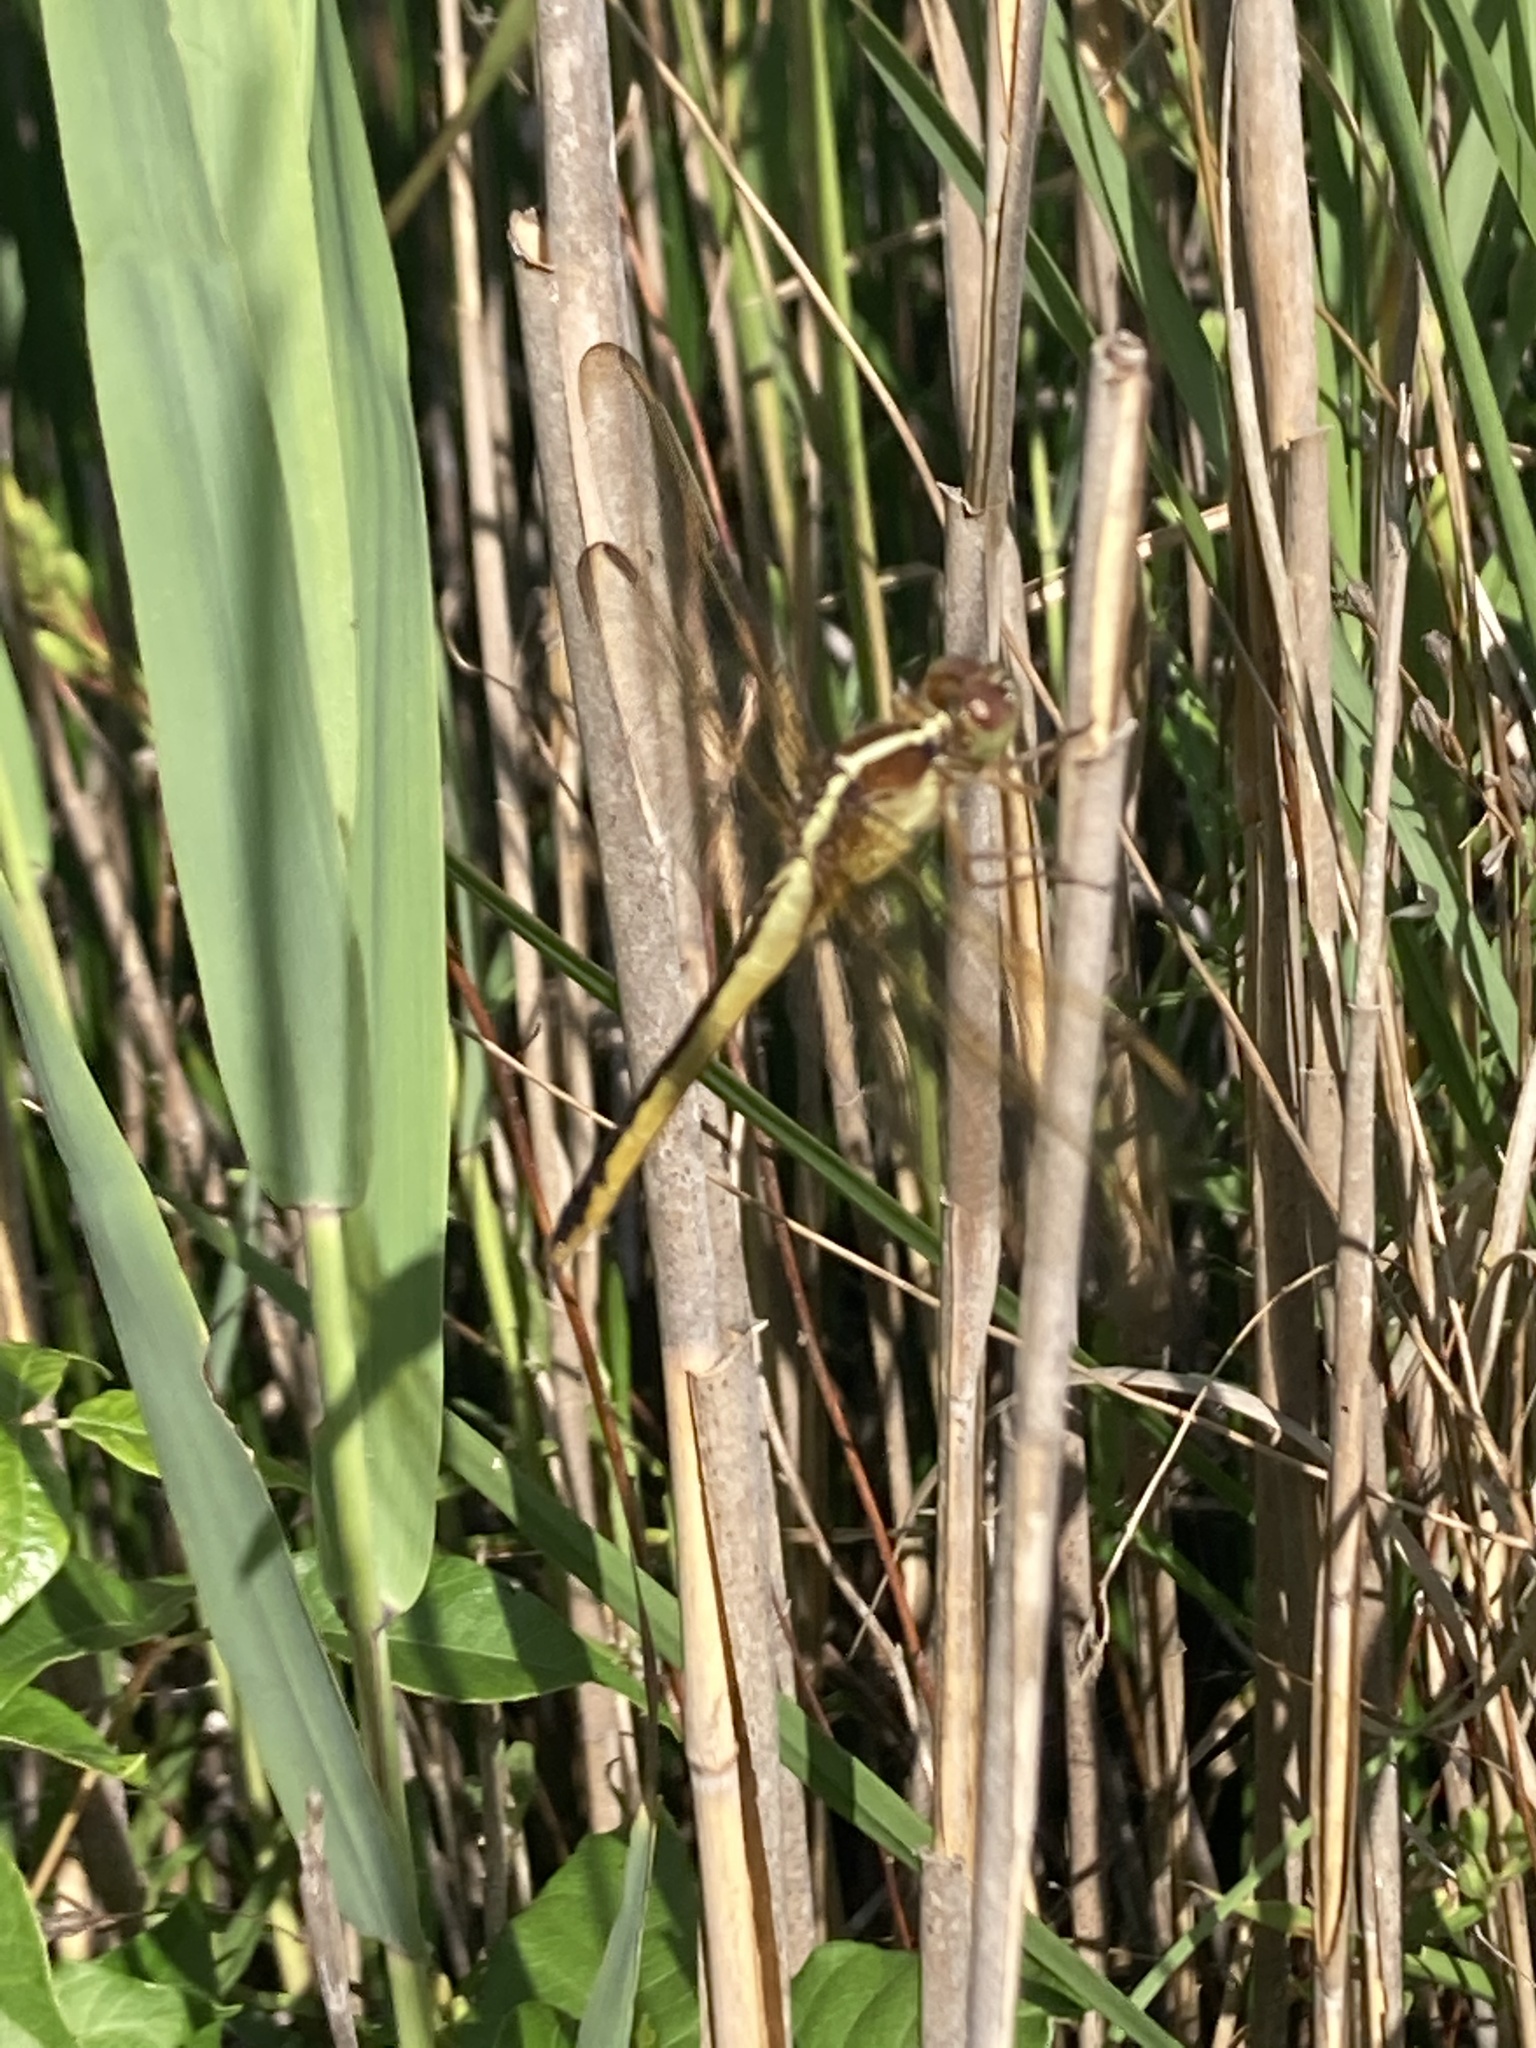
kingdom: Animalia
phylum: Arthropoda
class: Insecta
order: Odonata
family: Libellulidae
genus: Libellula
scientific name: Libellula needhami
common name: Needham's skimmer
